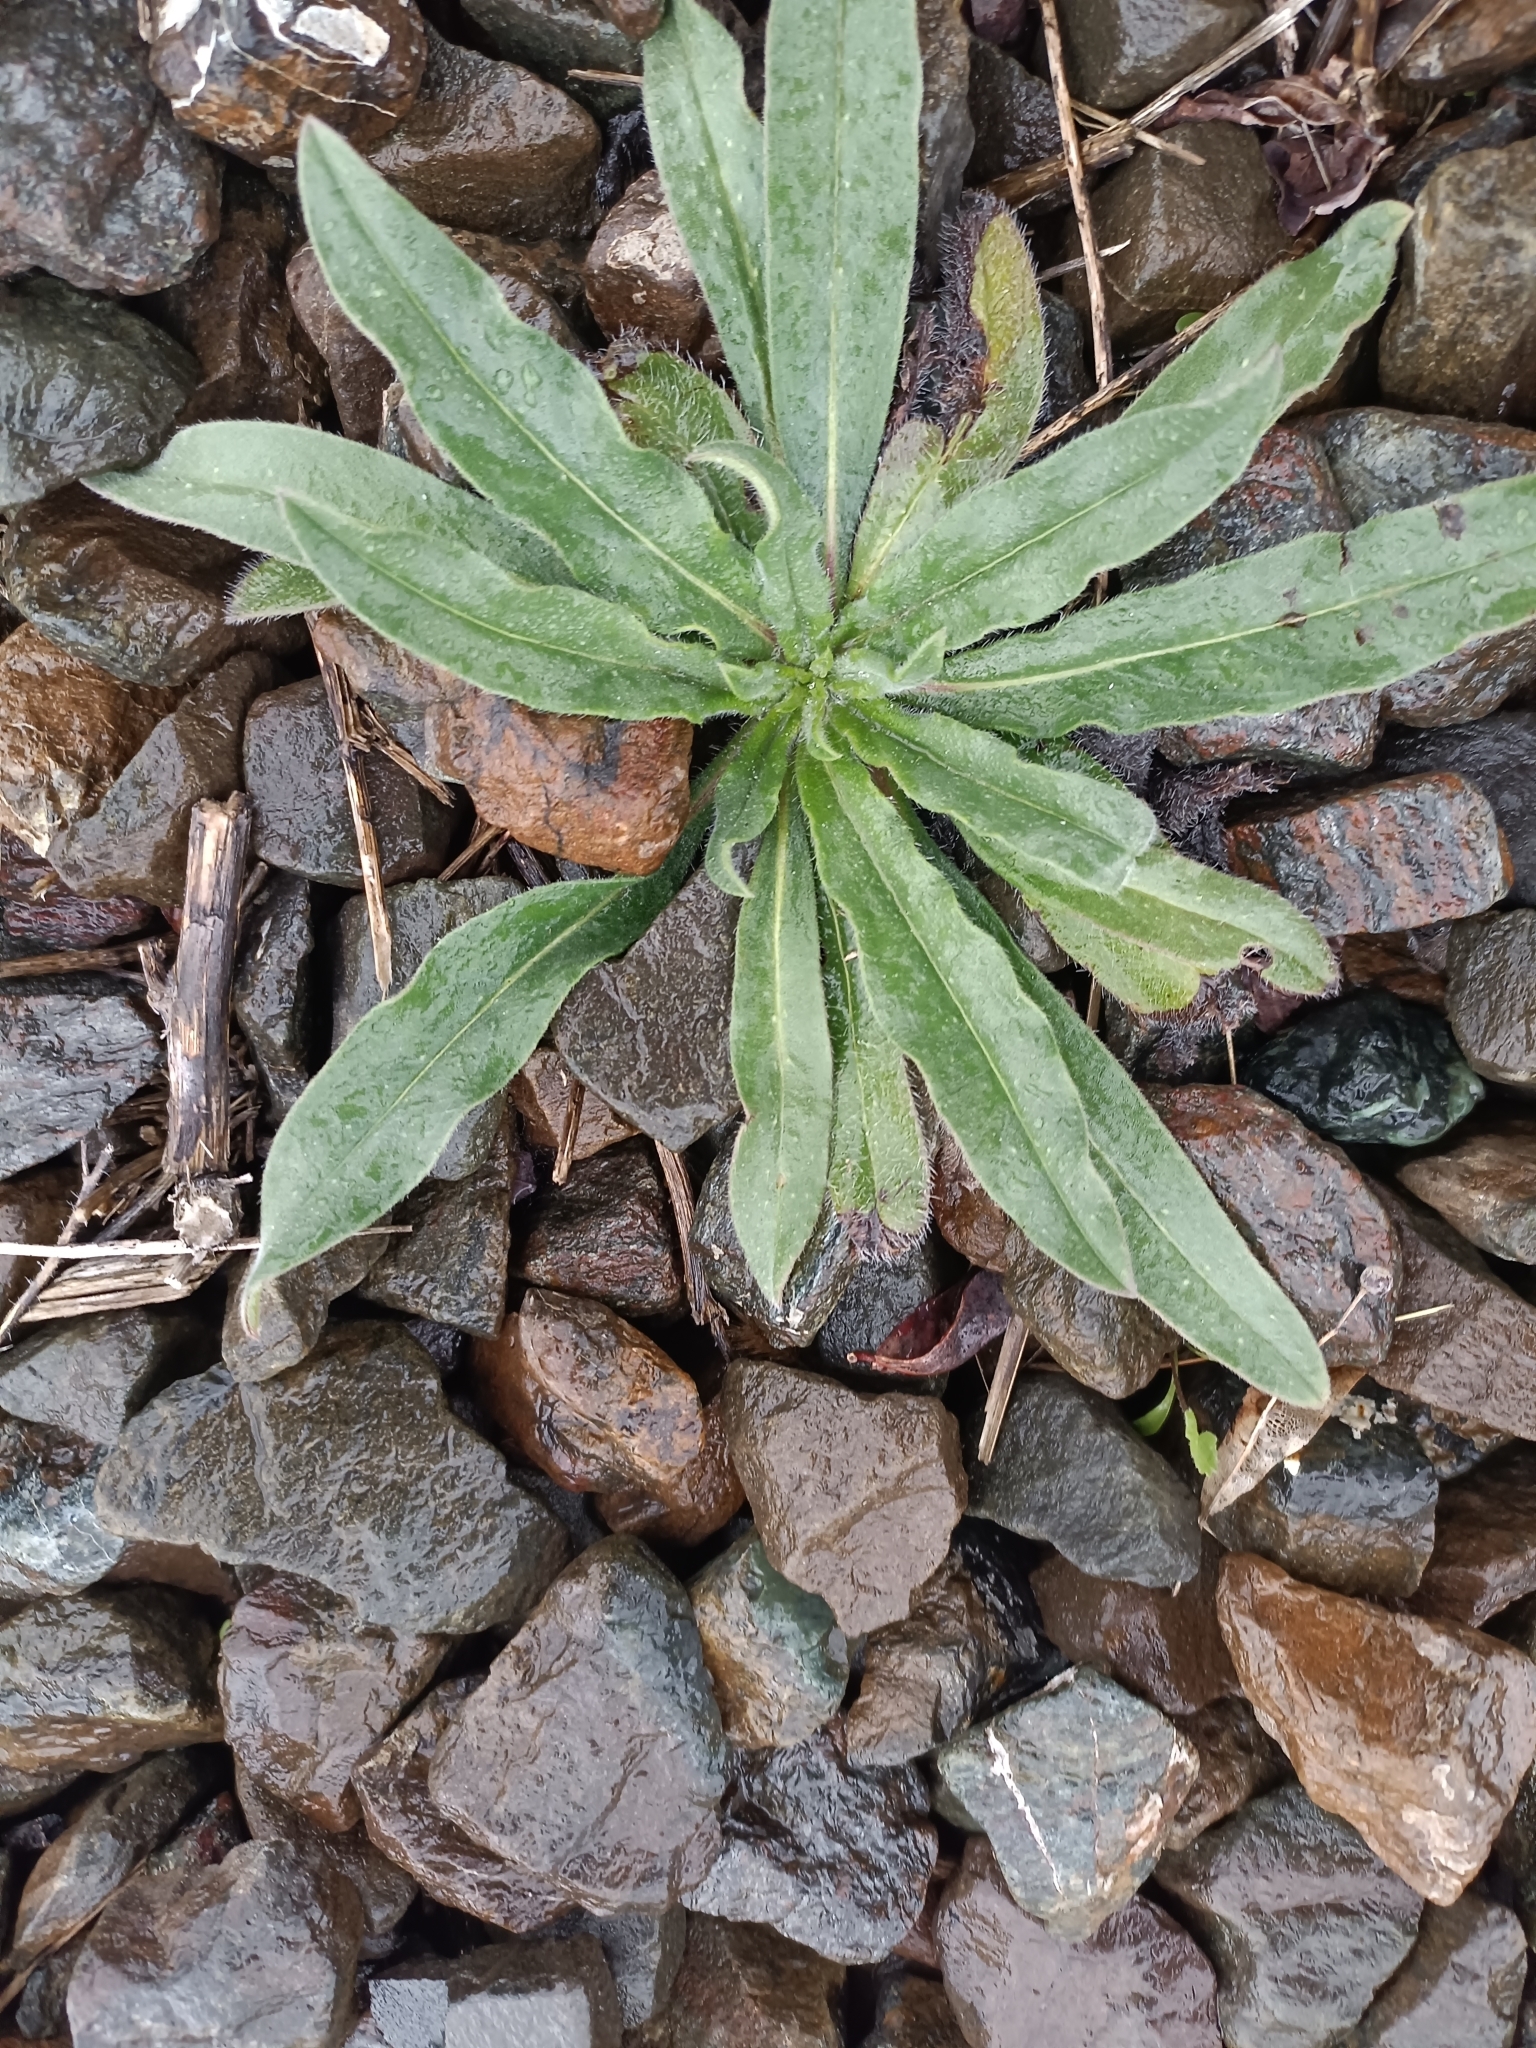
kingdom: Plantae
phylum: Tracheophyta
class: Magnoliopsida
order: Boraginales
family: Boraginaceae
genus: Echium
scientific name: Echium vulgare
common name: Common viper's bugloss
